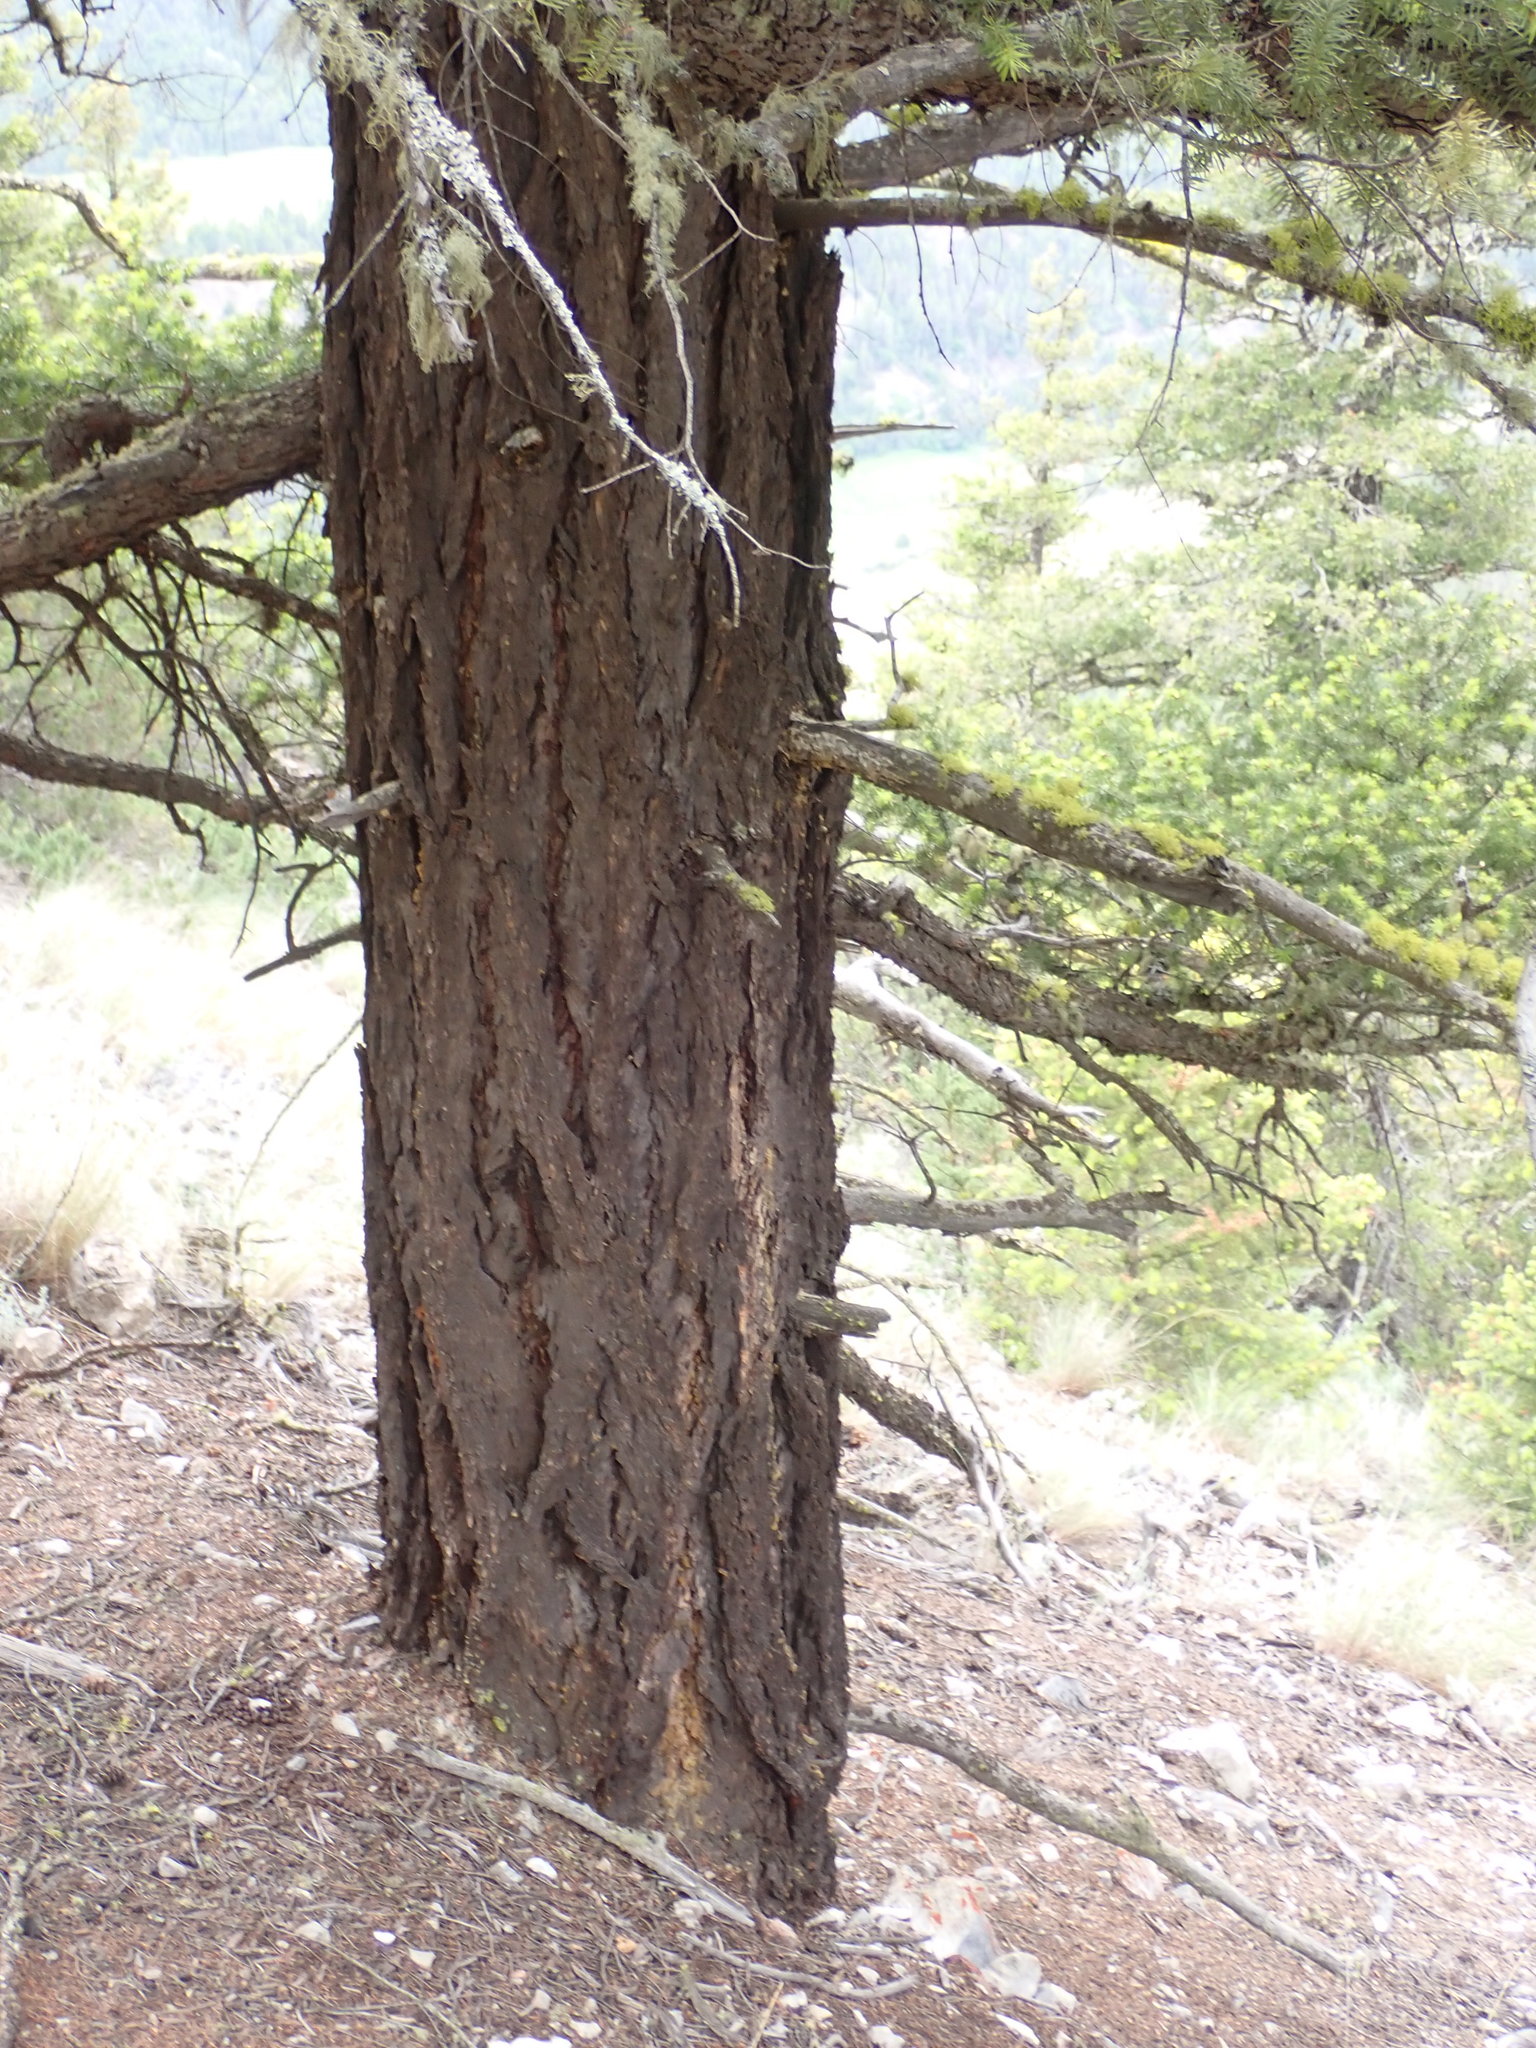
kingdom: Plantae
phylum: Tracheophyta
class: Pinopsida
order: Pinales
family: Pinaceae
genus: Pseudotsuga
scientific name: Pseudotsuga menziesii
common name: Douglas fir
